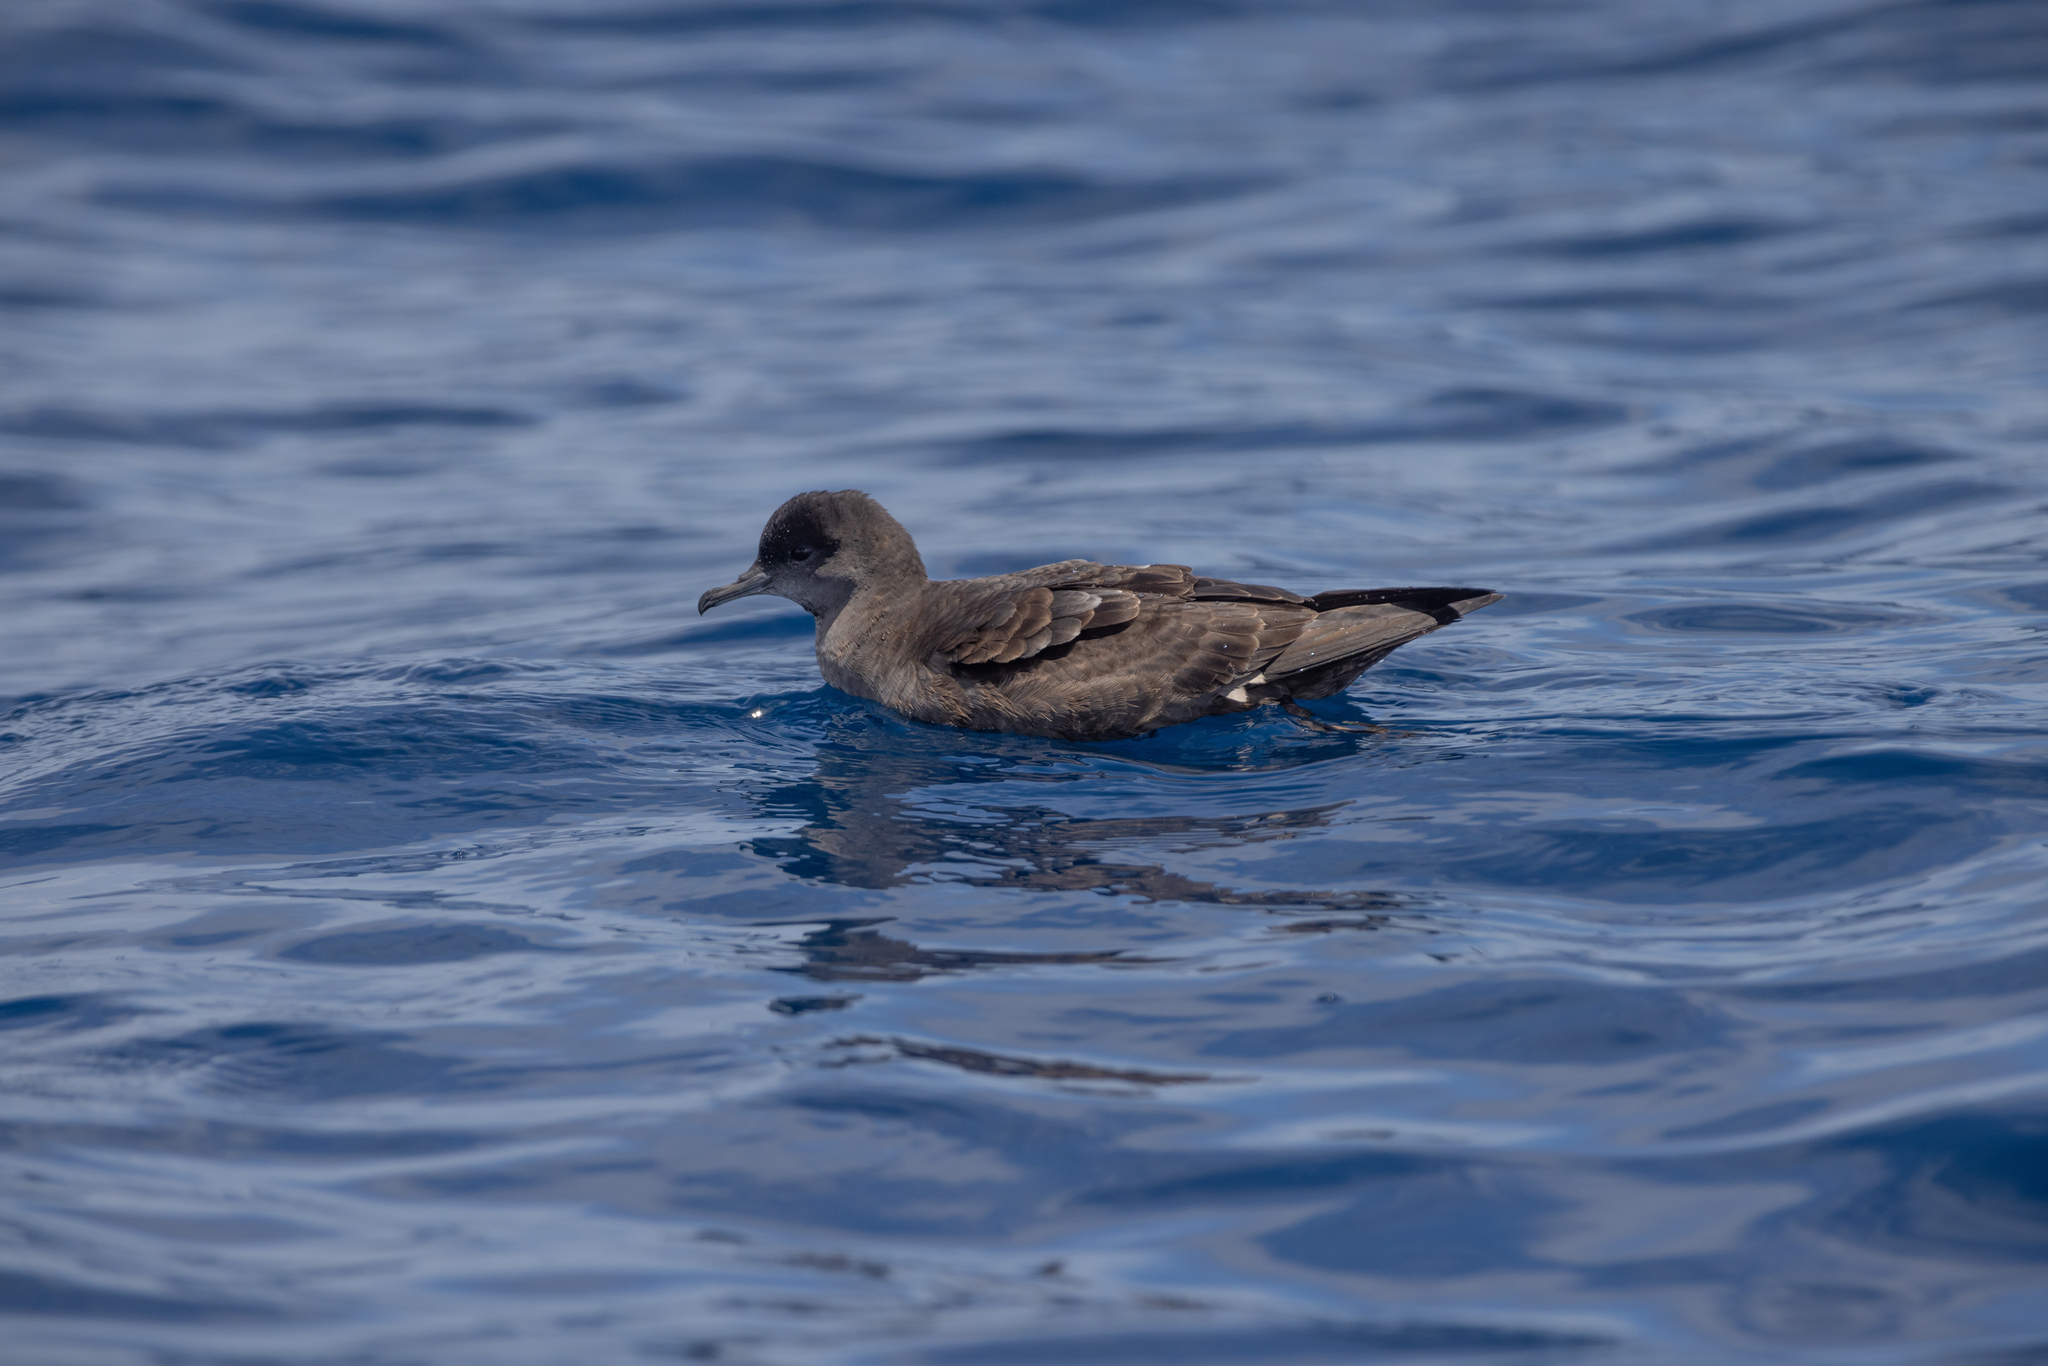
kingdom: Animalia
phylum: Chordata
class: Aves
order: Procellariiformes
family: Procellariidae
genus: Puffinus
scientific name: Puffinus tenuirostris
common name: Short-tailed shearwater
